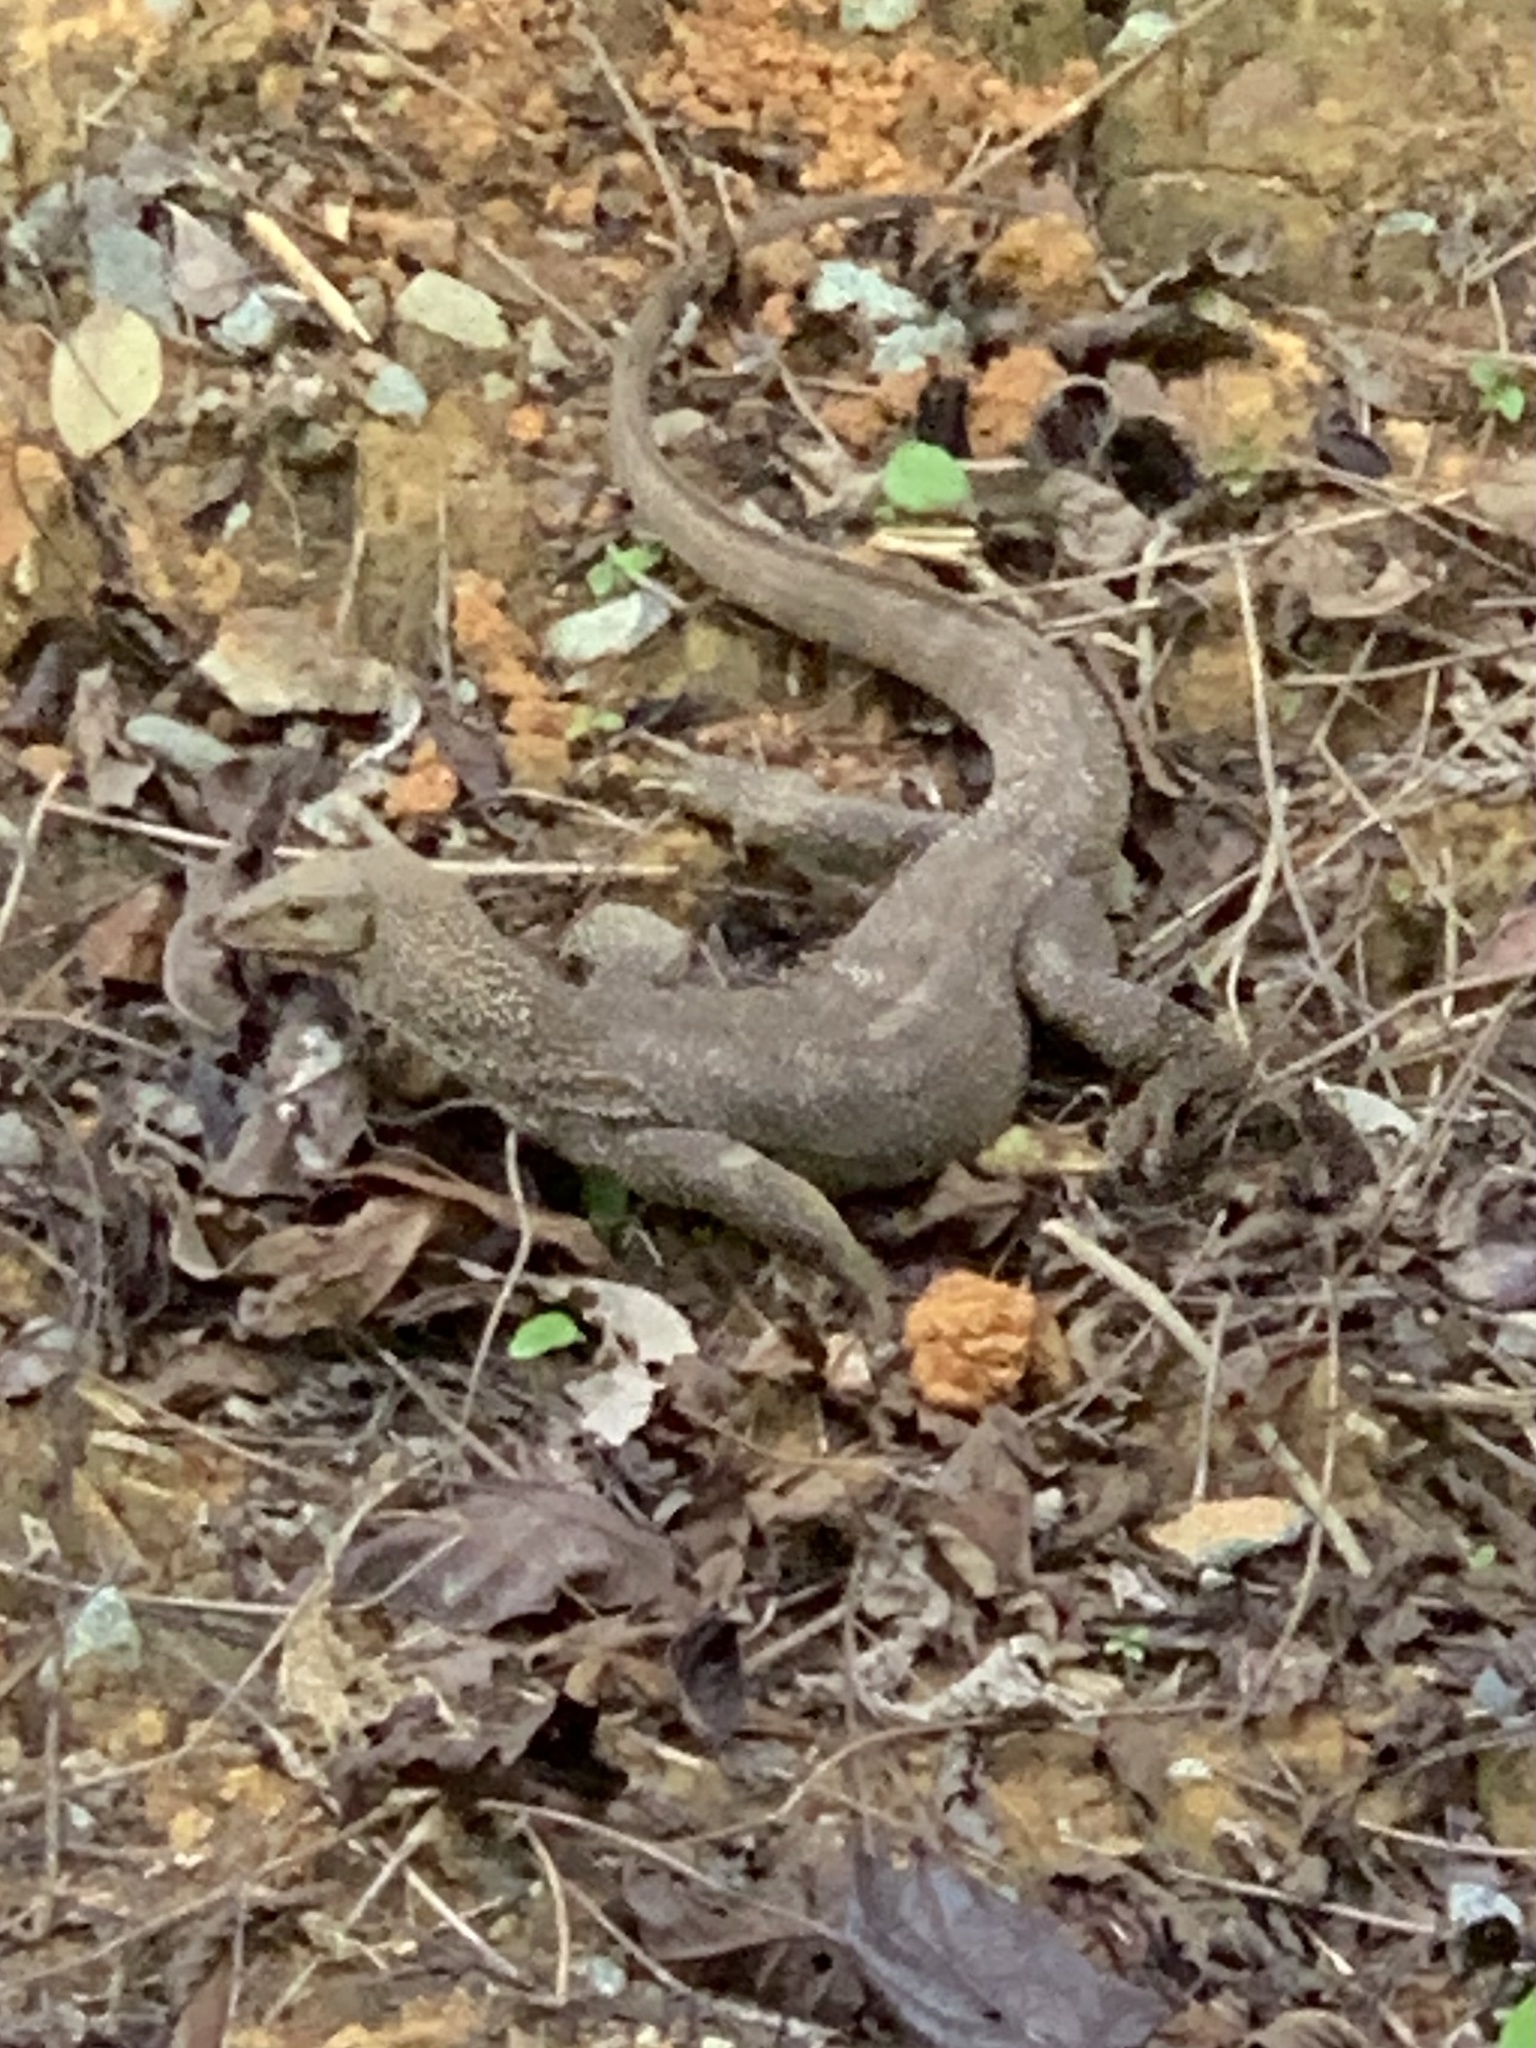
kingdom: Animalia
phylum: Chordata
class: Squamata
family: Varanidae
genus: Varanus
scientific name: Varanus nebulosus
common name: Clouded monitor
